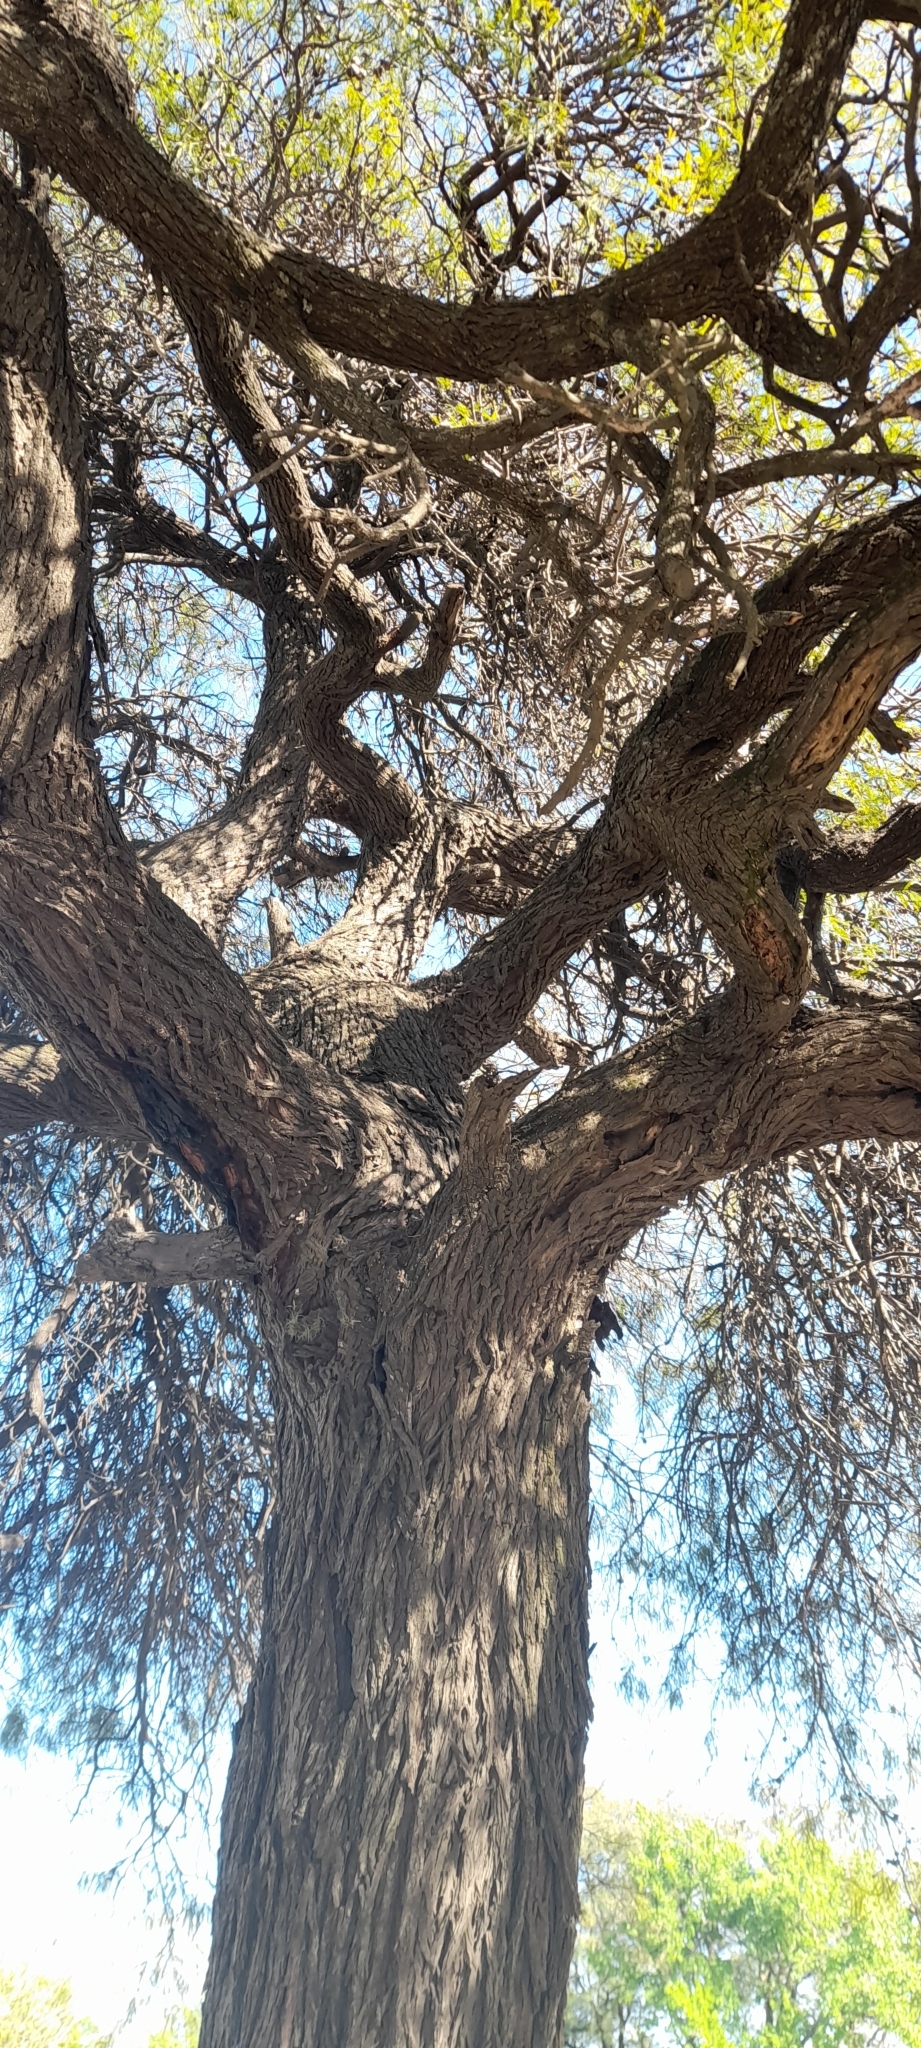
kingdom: Plantae
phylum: Tracheophyta
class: Magnoliopsida
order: Fabales
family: Fabaceae
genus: Prosopis
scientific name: Prosopis alba
